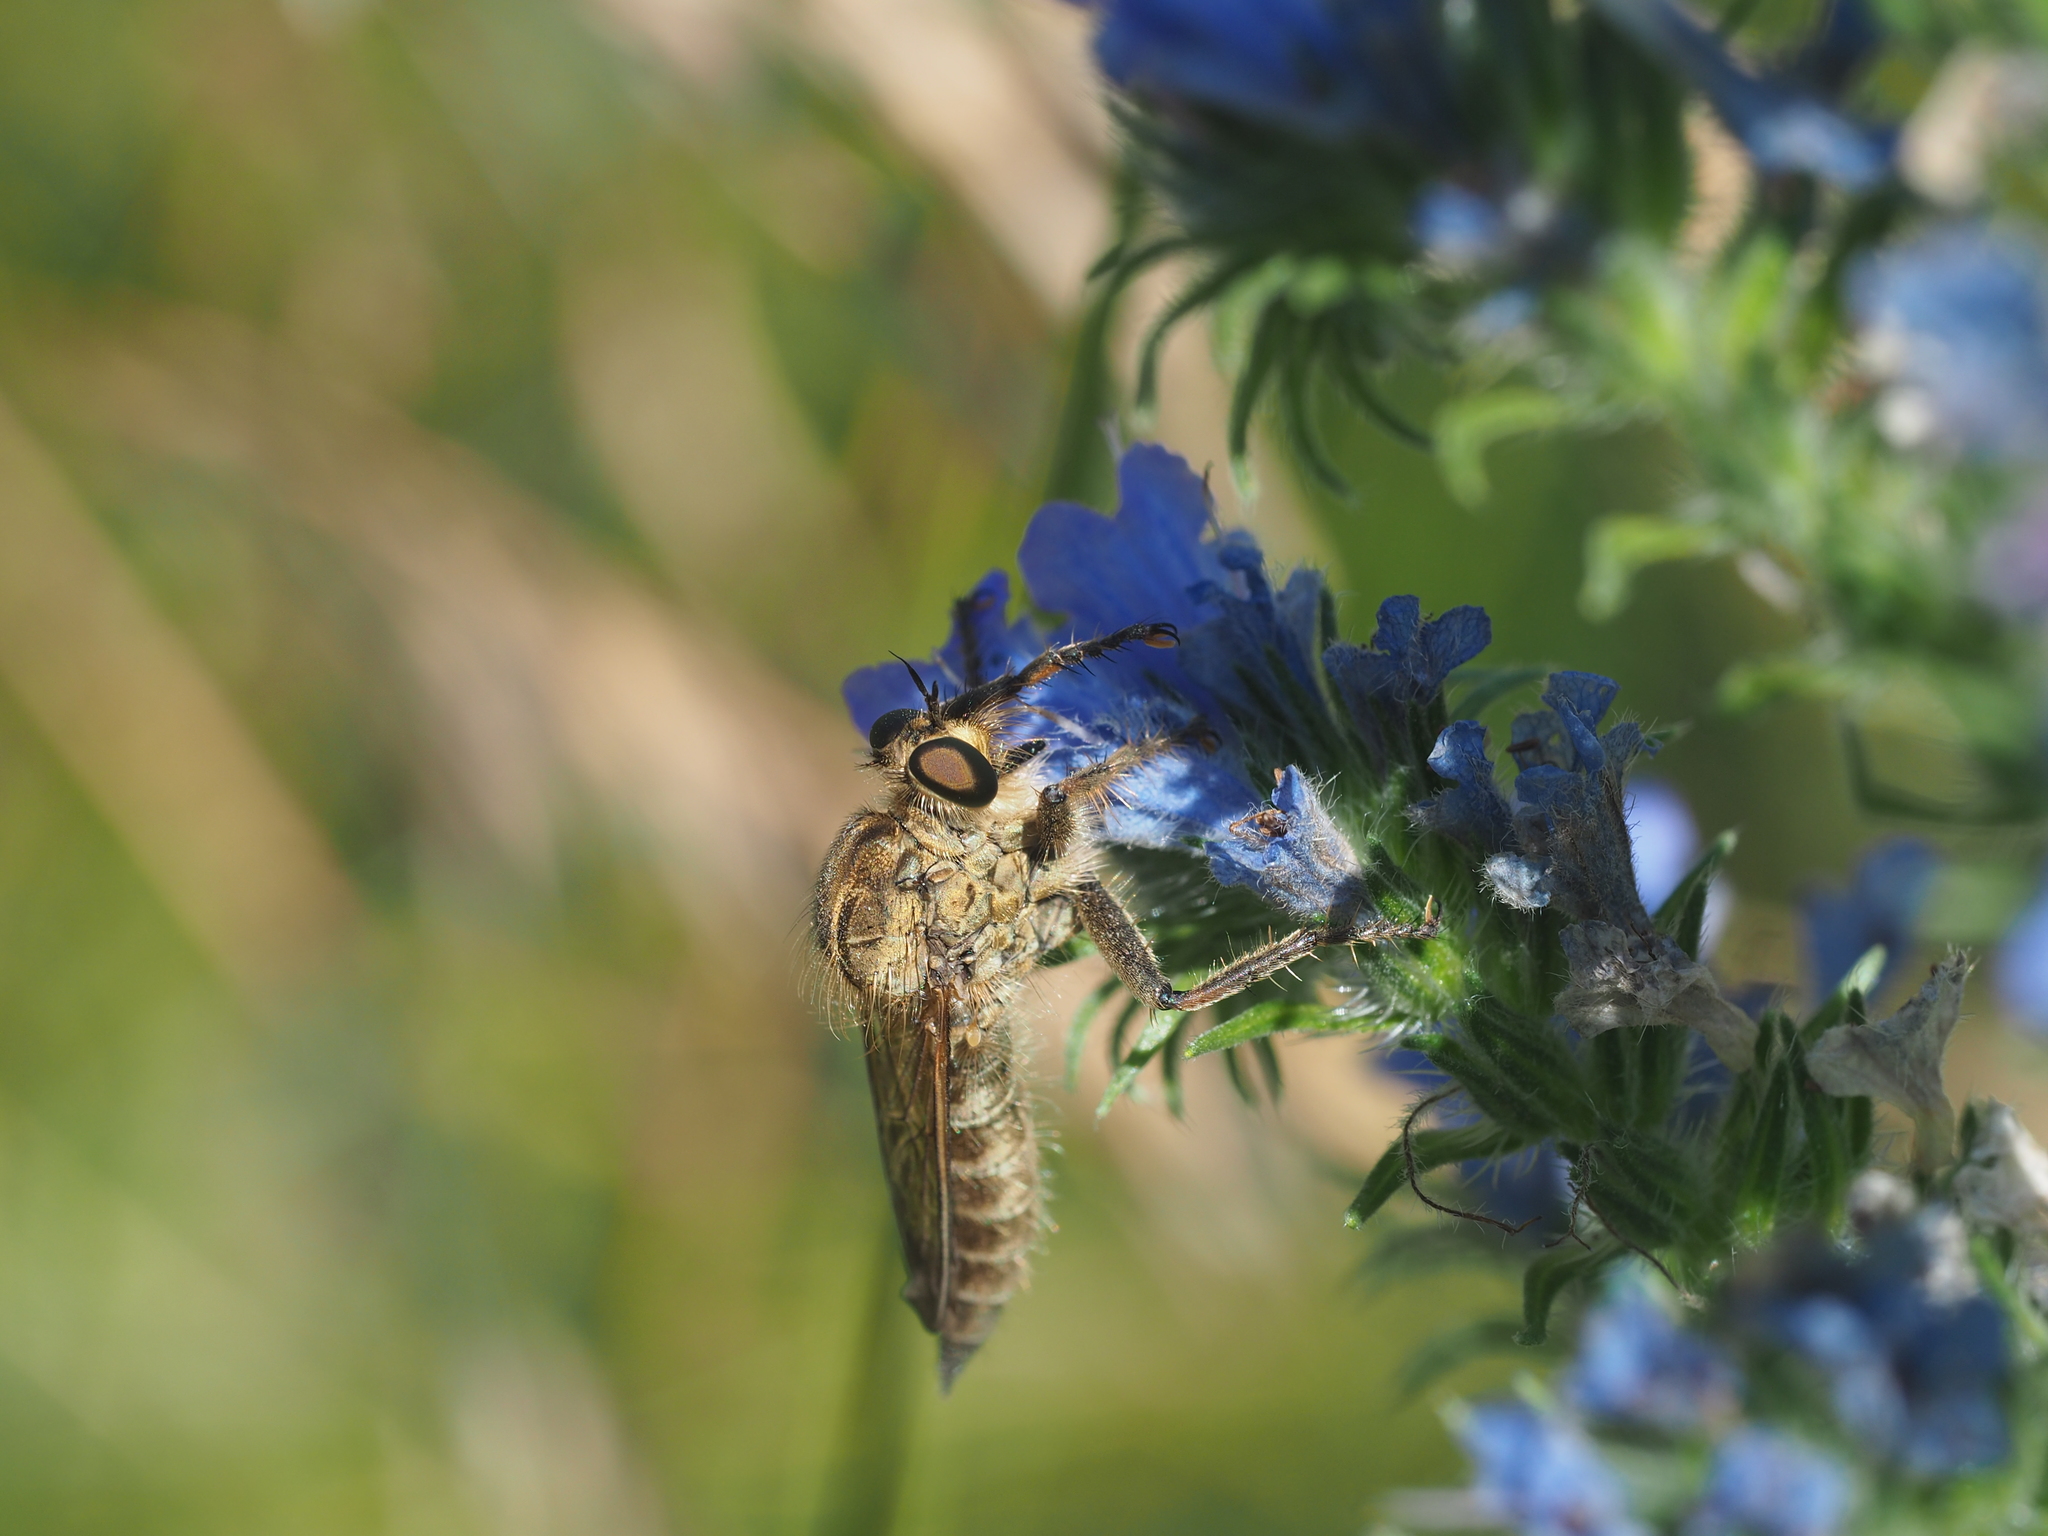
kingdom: Animalia
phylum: Arthropoda
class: Insecta
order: Diptera
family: Asilidae
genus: Machimus
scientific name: Machimus rusticus
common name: Downland robberfly
